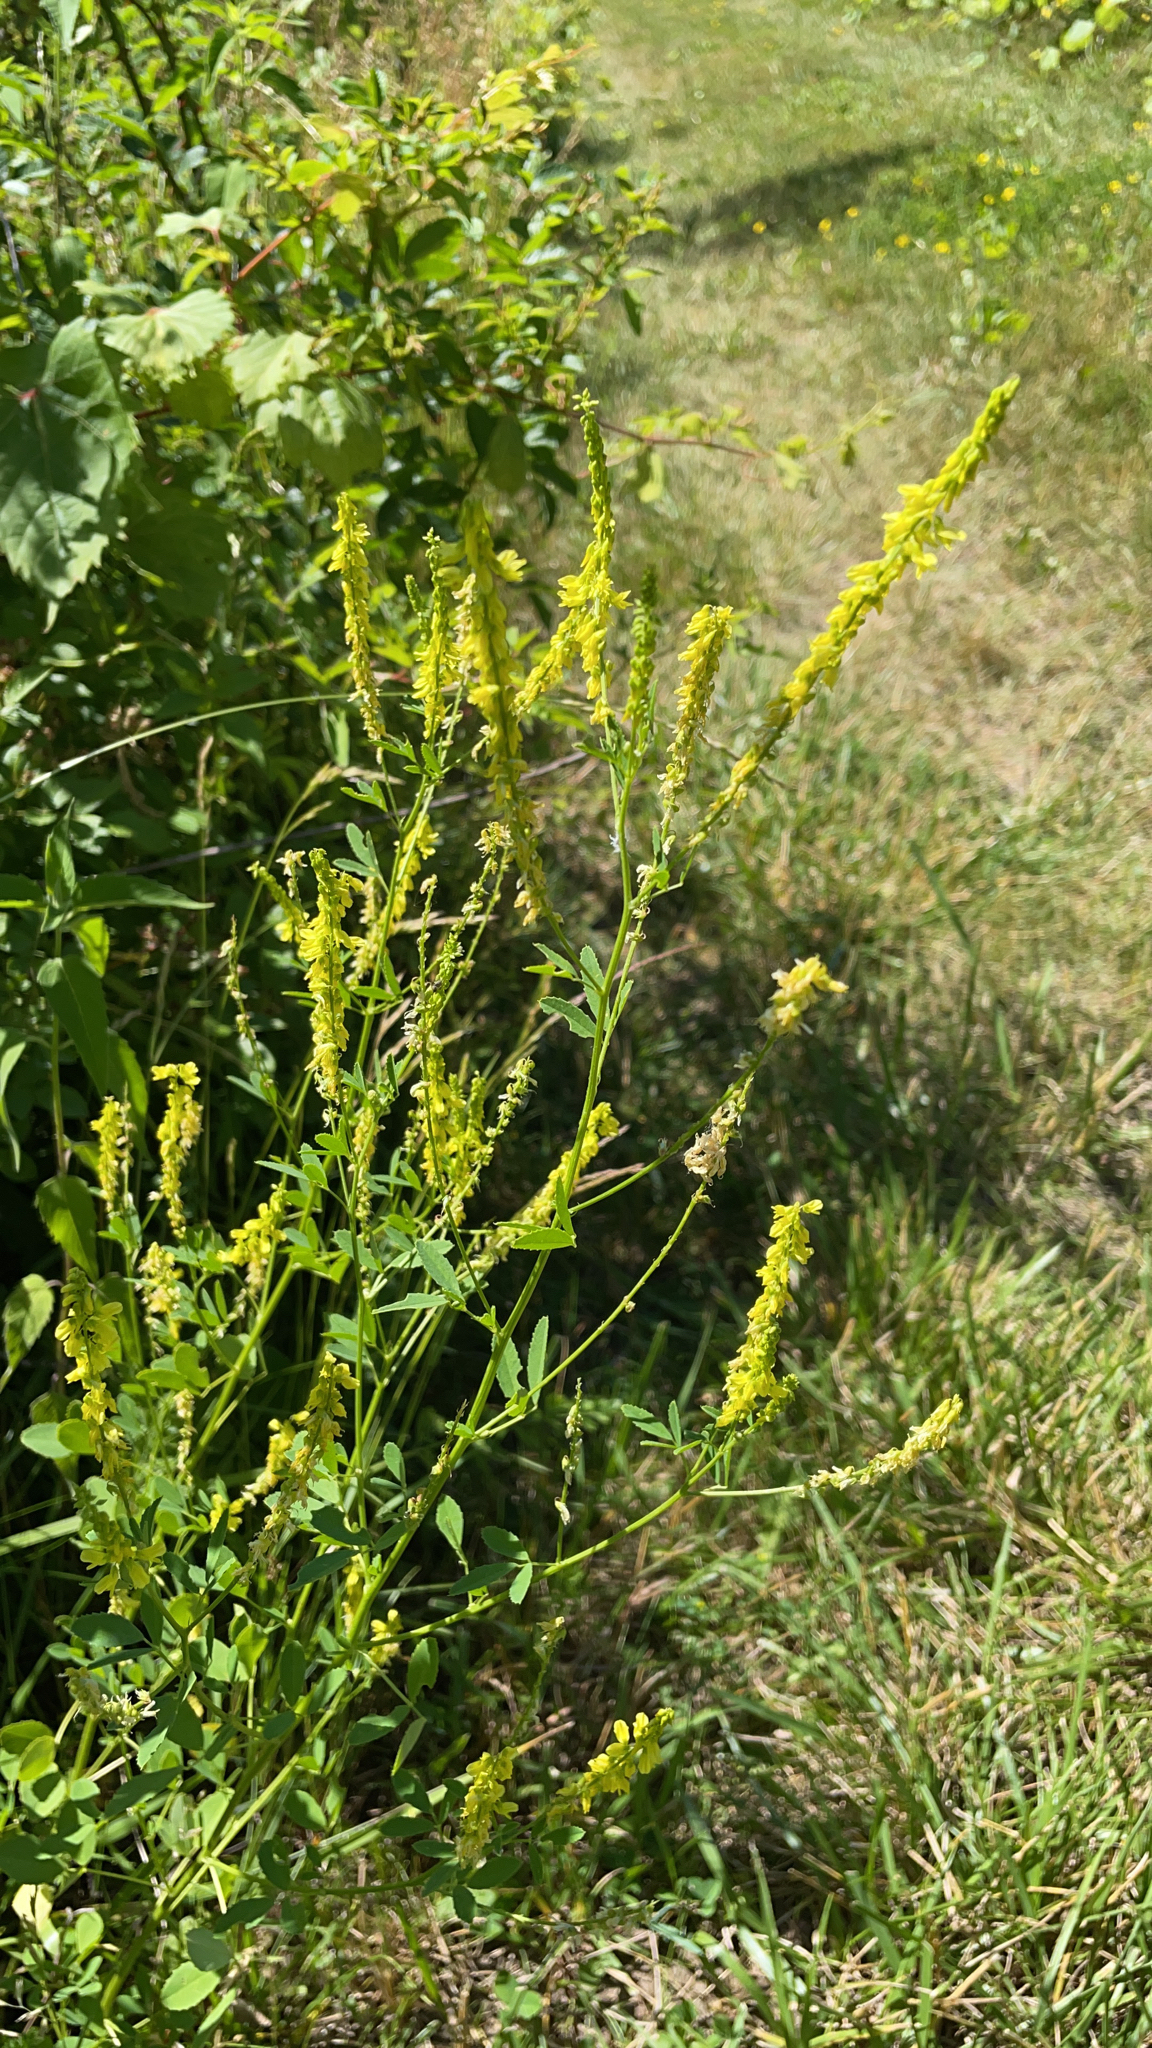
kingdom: Plantae
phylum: Tracheophyta
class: Magnoliopsida
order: Fabales
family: Fabaceae
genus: Melilotus
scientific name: Melilotus officinalis
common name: Sweetclover
